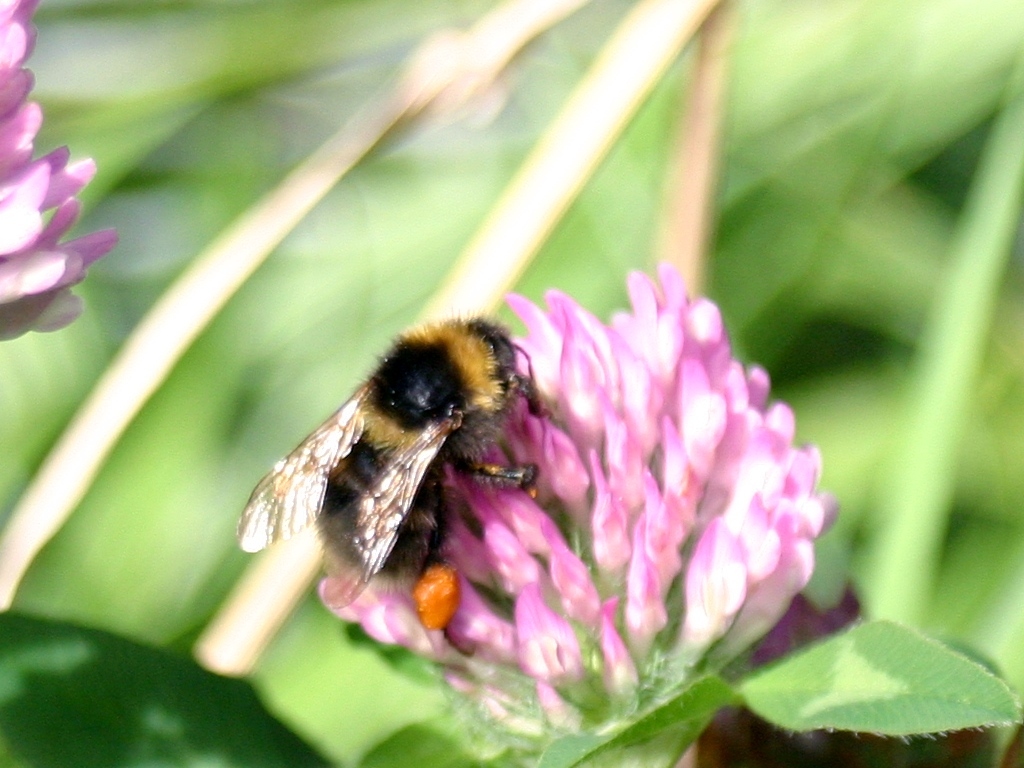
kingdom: Animalia
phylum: Arthropoda
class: Insecta
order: Hymenoptera
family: Apidae
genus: Bombus
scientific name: Bombus ruderatus
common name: Large garden bumblebee
